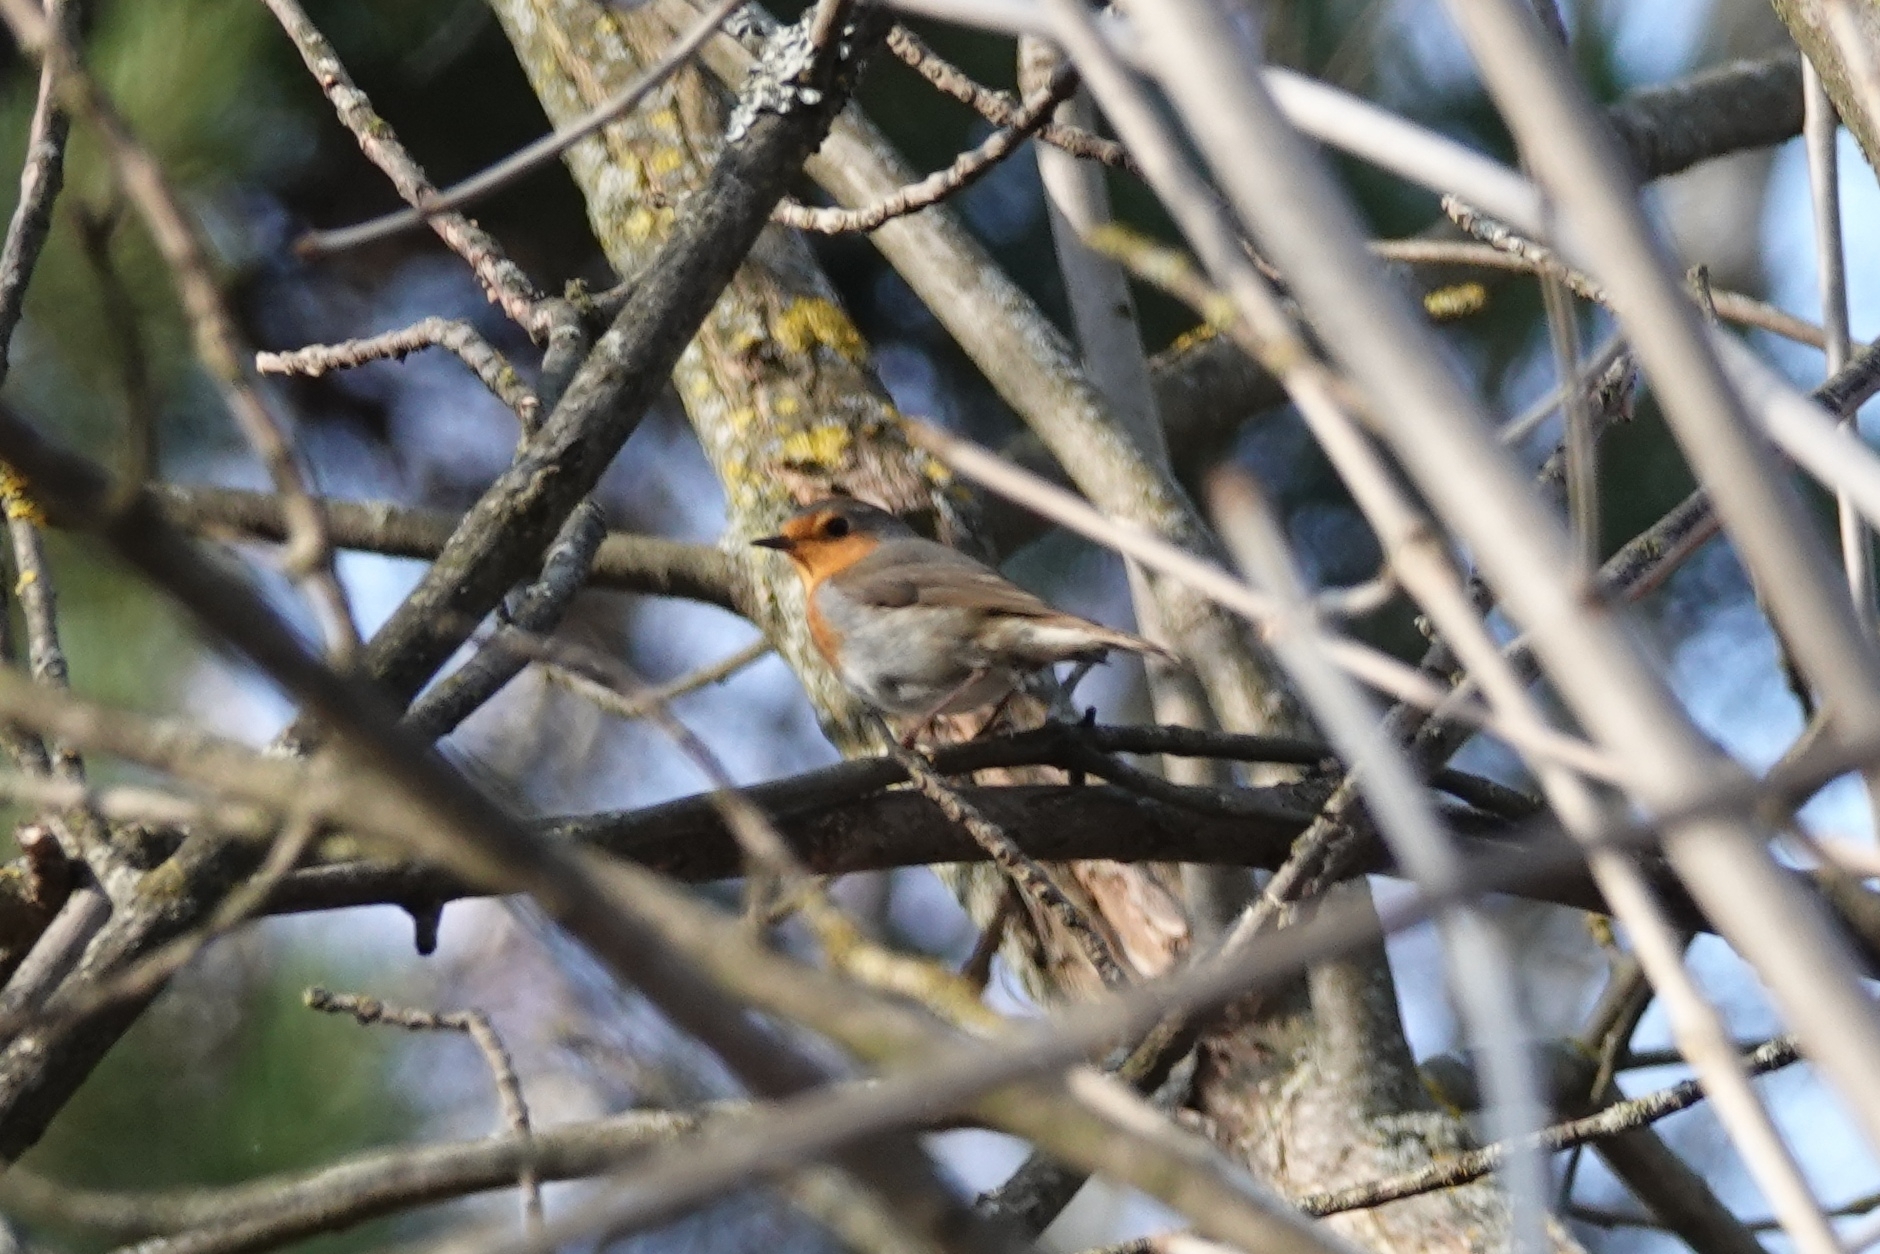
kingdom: Animalia
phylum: Chordata
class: Aves
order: Passeriformes
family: Muscicapidae
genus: Erithacus
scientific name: Erithacus rubecula
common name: European robin
